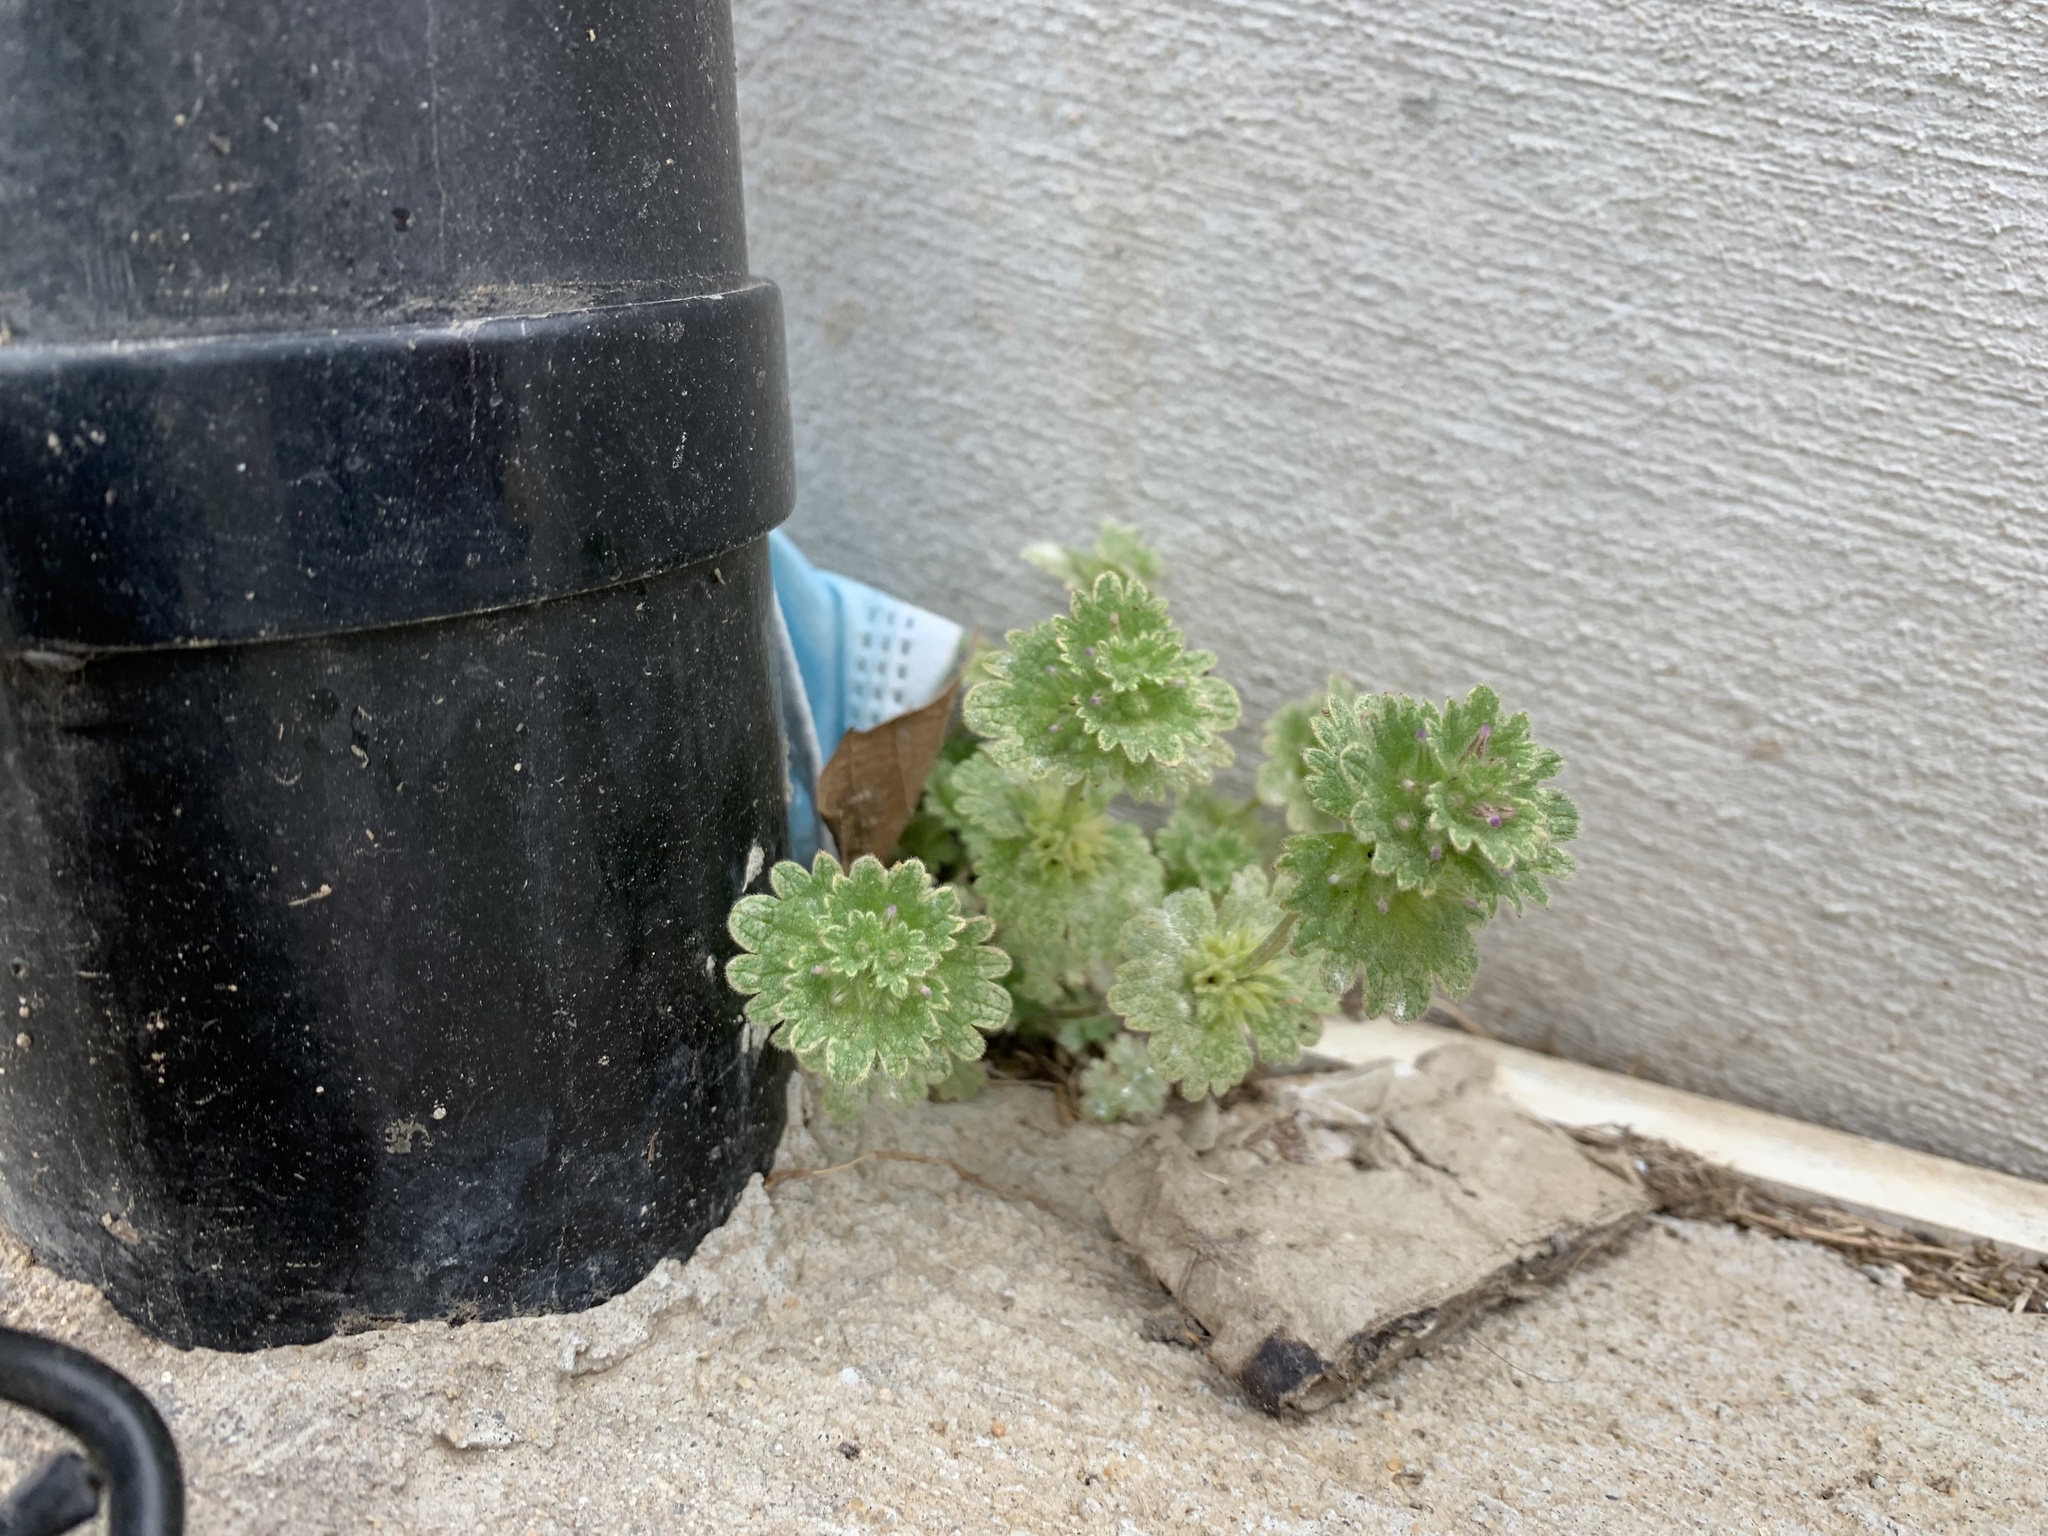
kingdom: Plantae
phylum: Tracheophyta
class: Magnoliopsida
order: Lamiales
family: Lamiaceae
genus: Lamium
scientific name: Lamium amplexicaule
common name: Henbit dead-nettle
